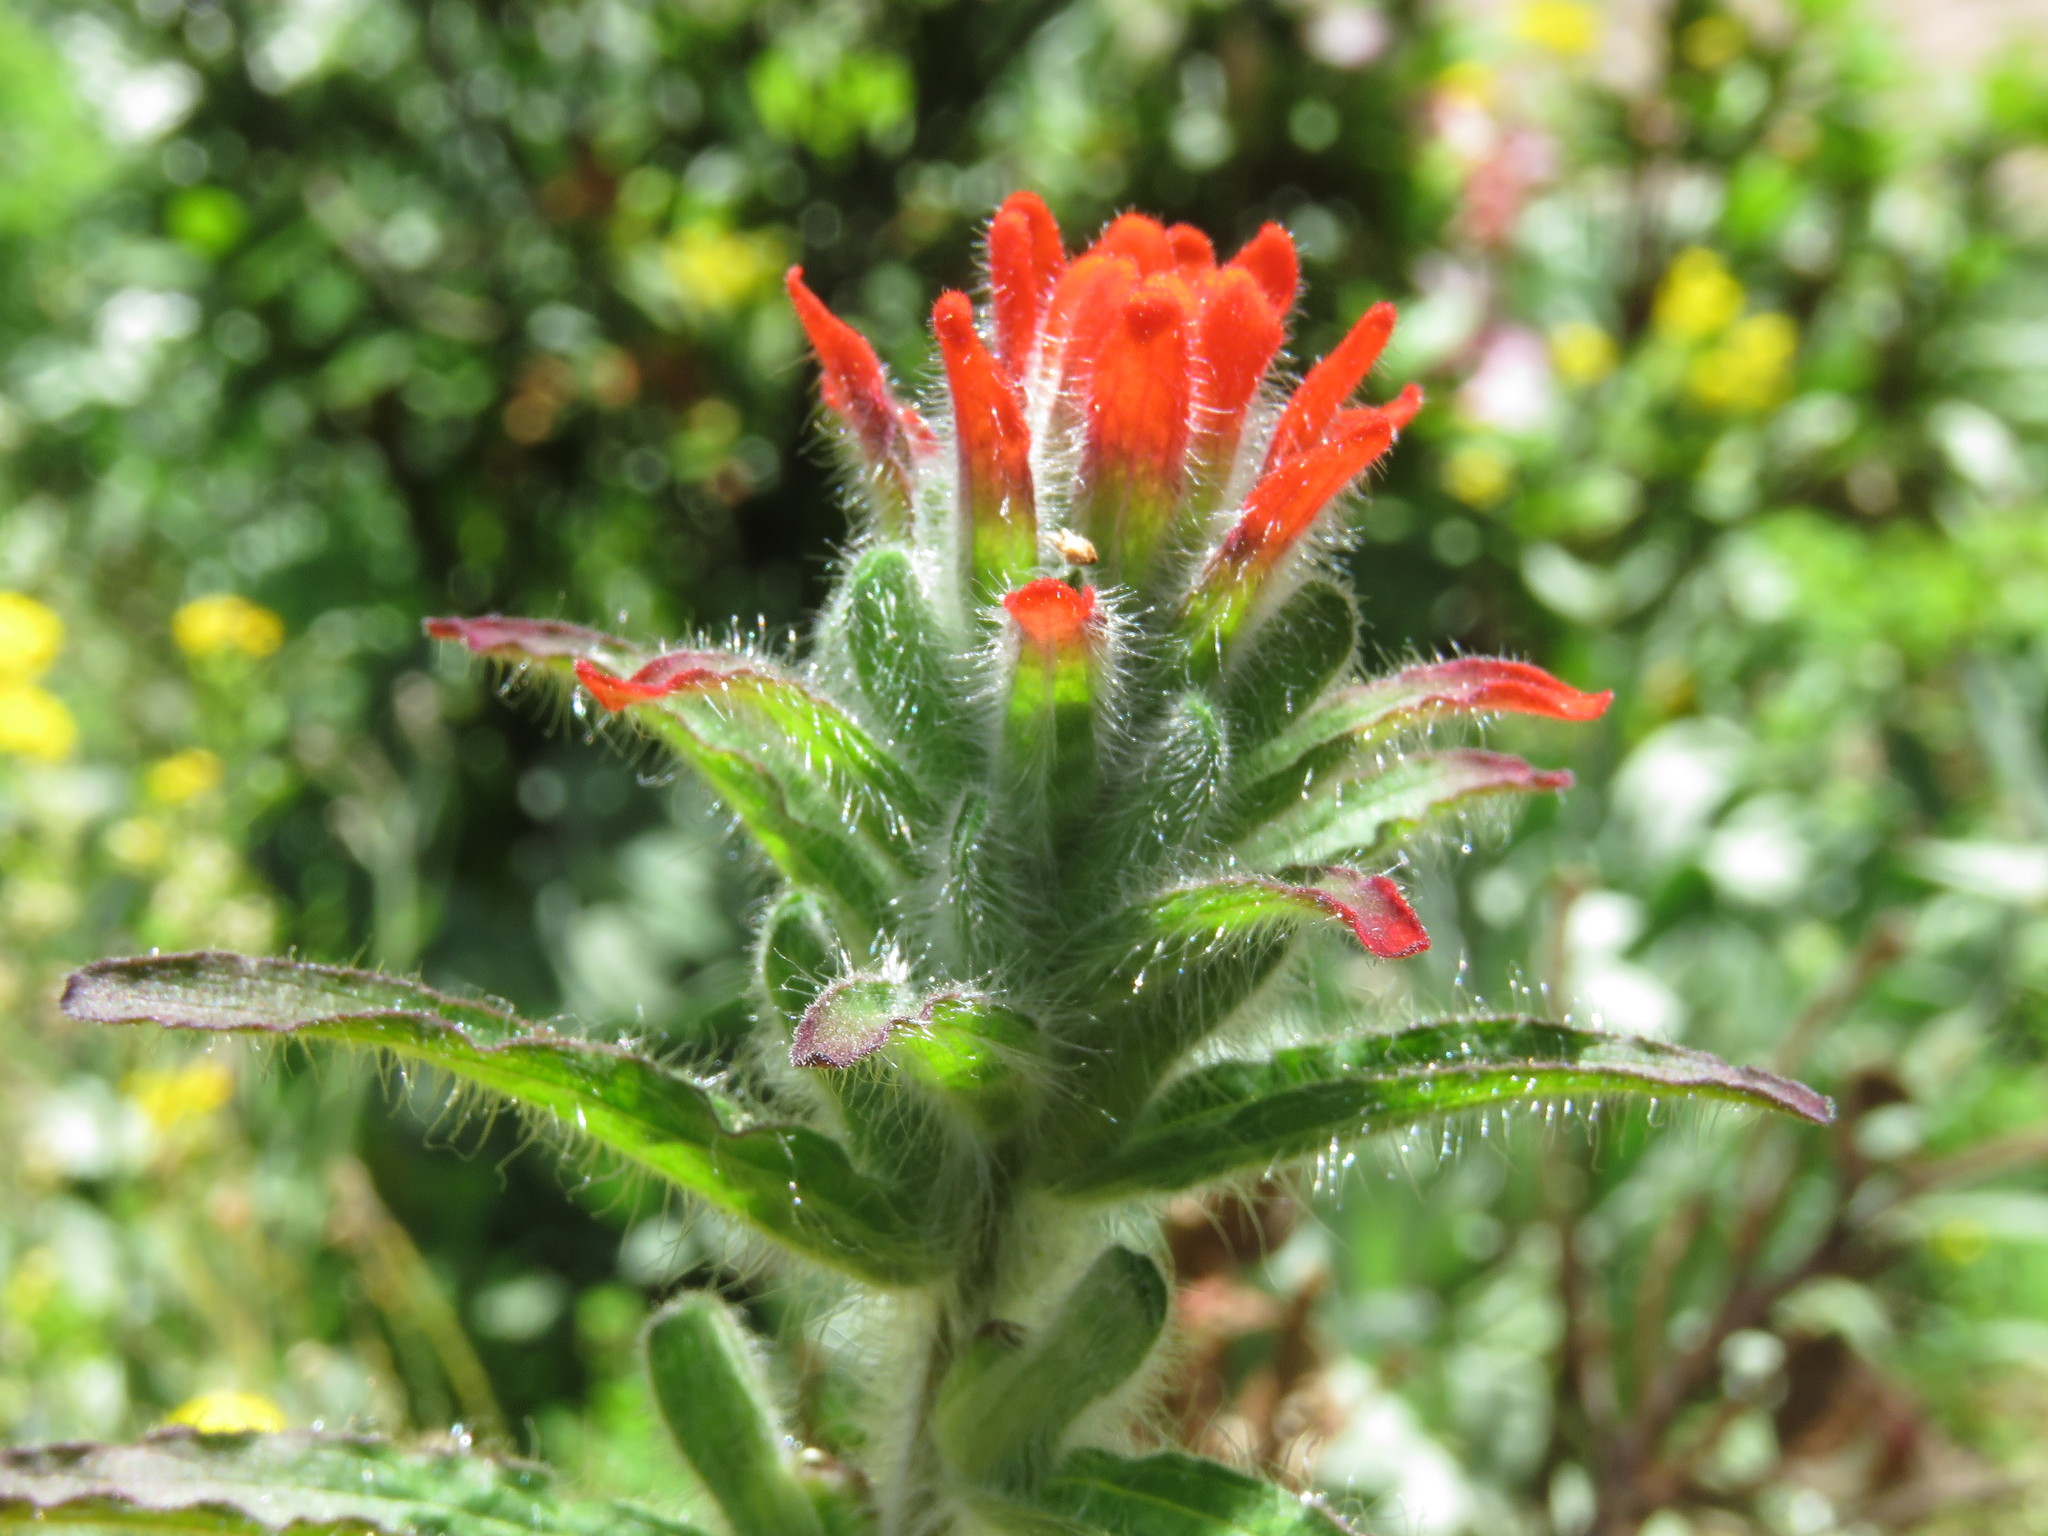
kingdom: Plantae
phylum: Tracheophyta
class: Magnoliopsida
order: Lamiales
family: Orobanchaceae
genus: Castilleja
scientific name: Castilleja arvensis
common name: Indian paintbrush
